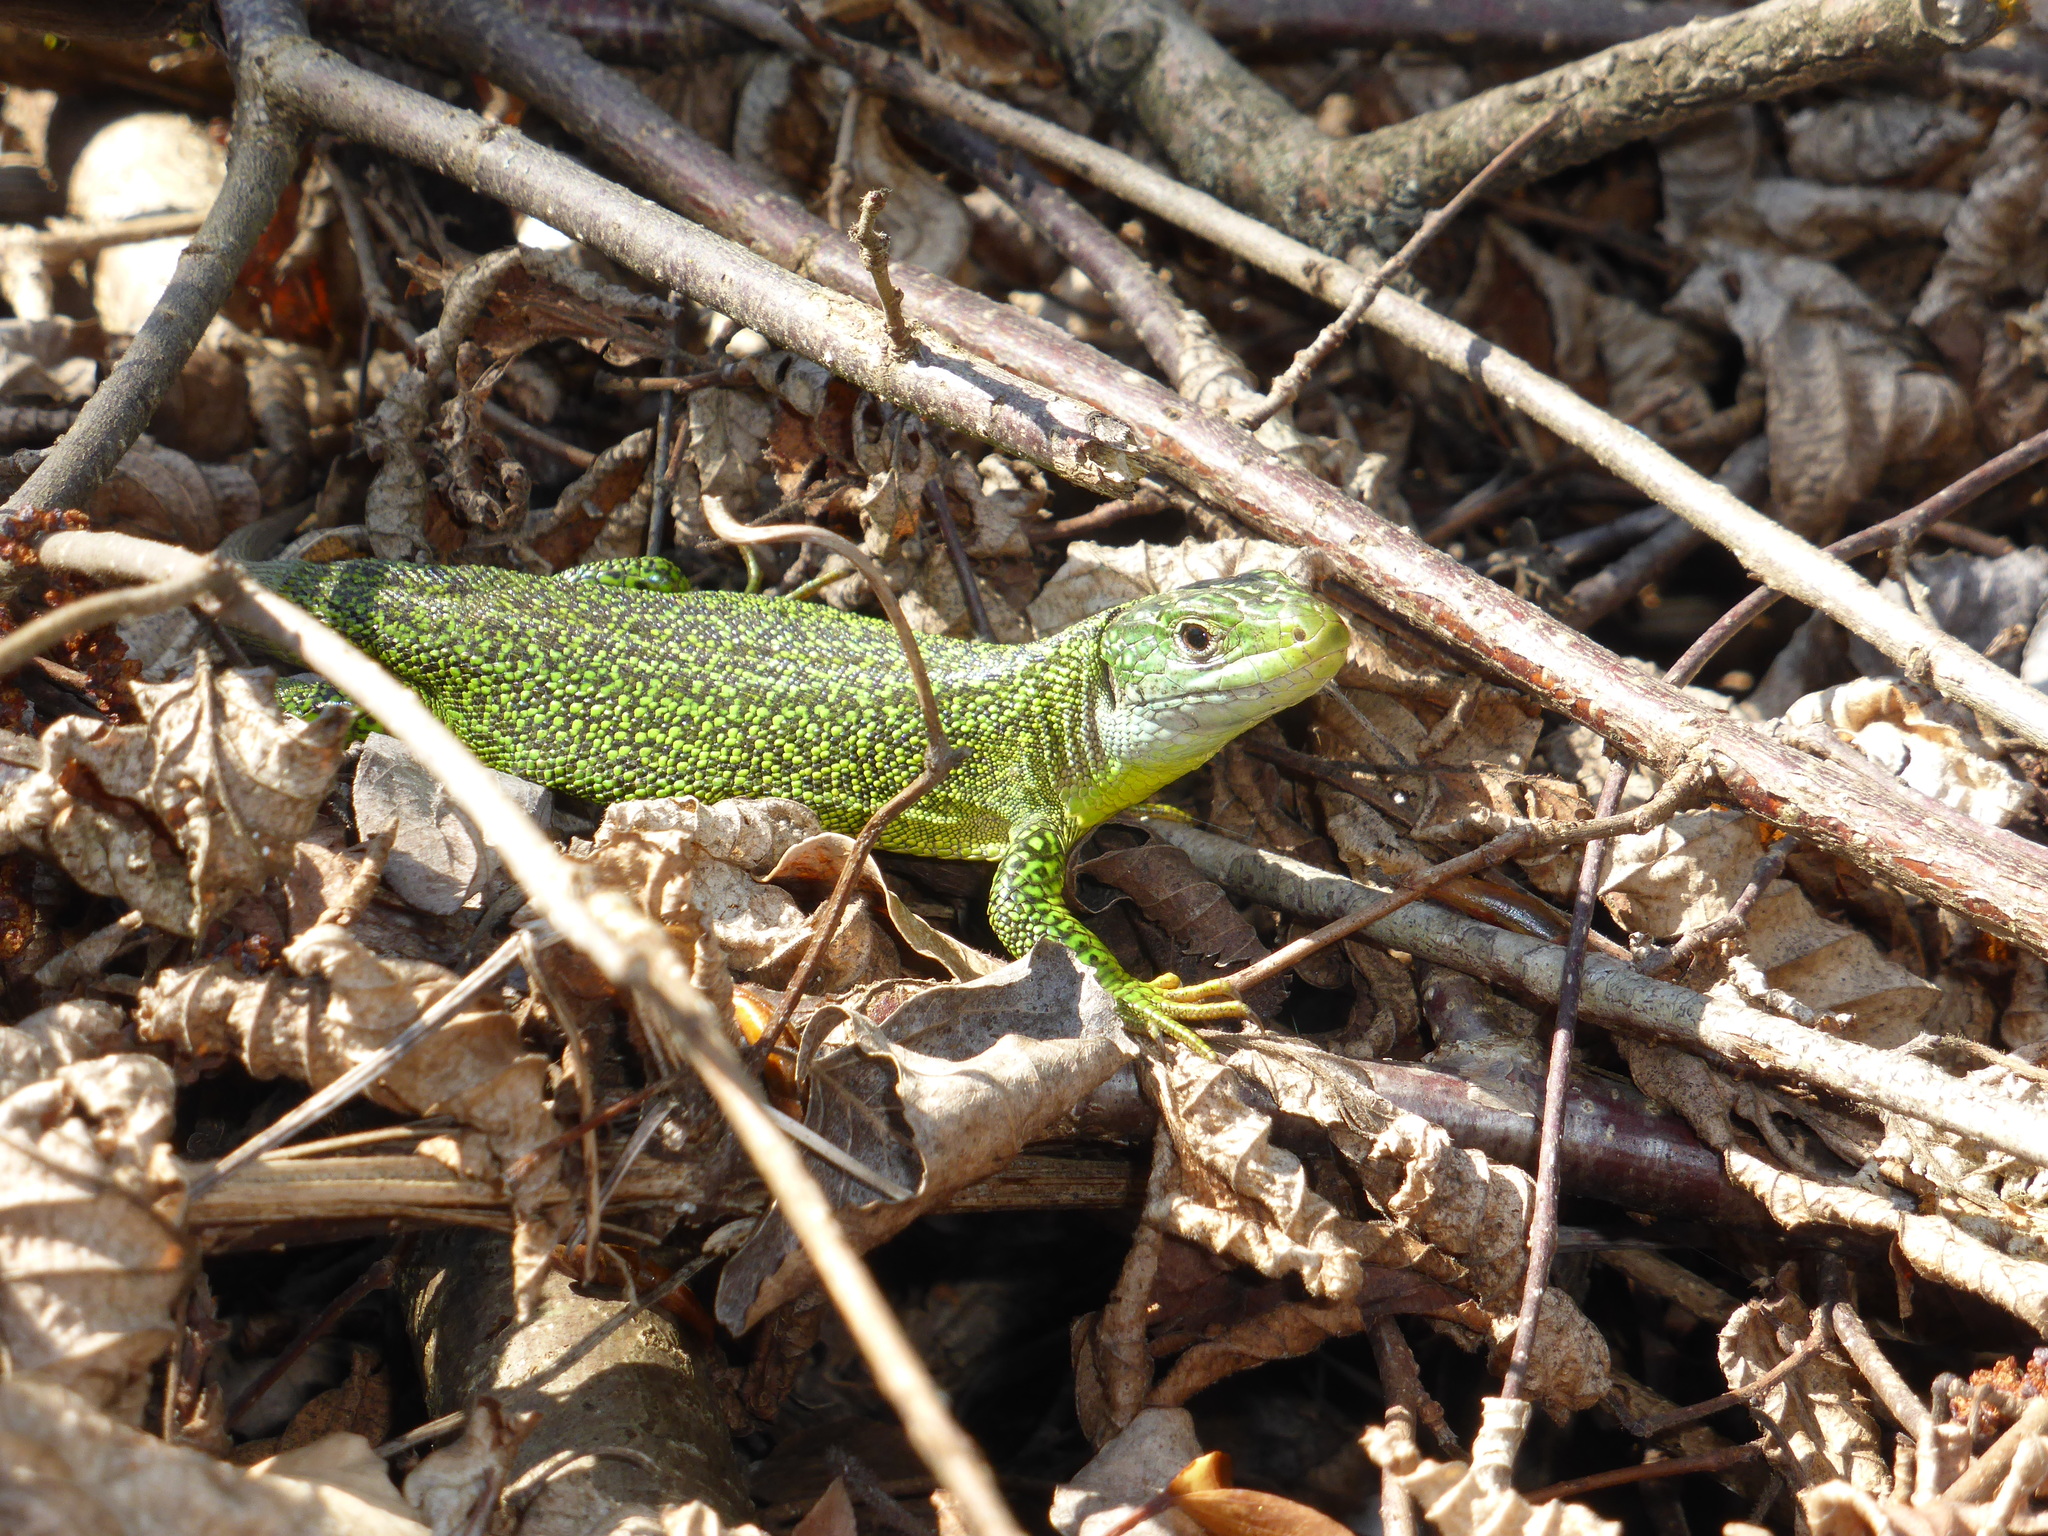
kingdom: Animalia
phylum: Chordata
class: Squamata
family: Lacertidae
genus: Lacerta
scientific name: Lacerta bilineata
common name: Western green lizard
